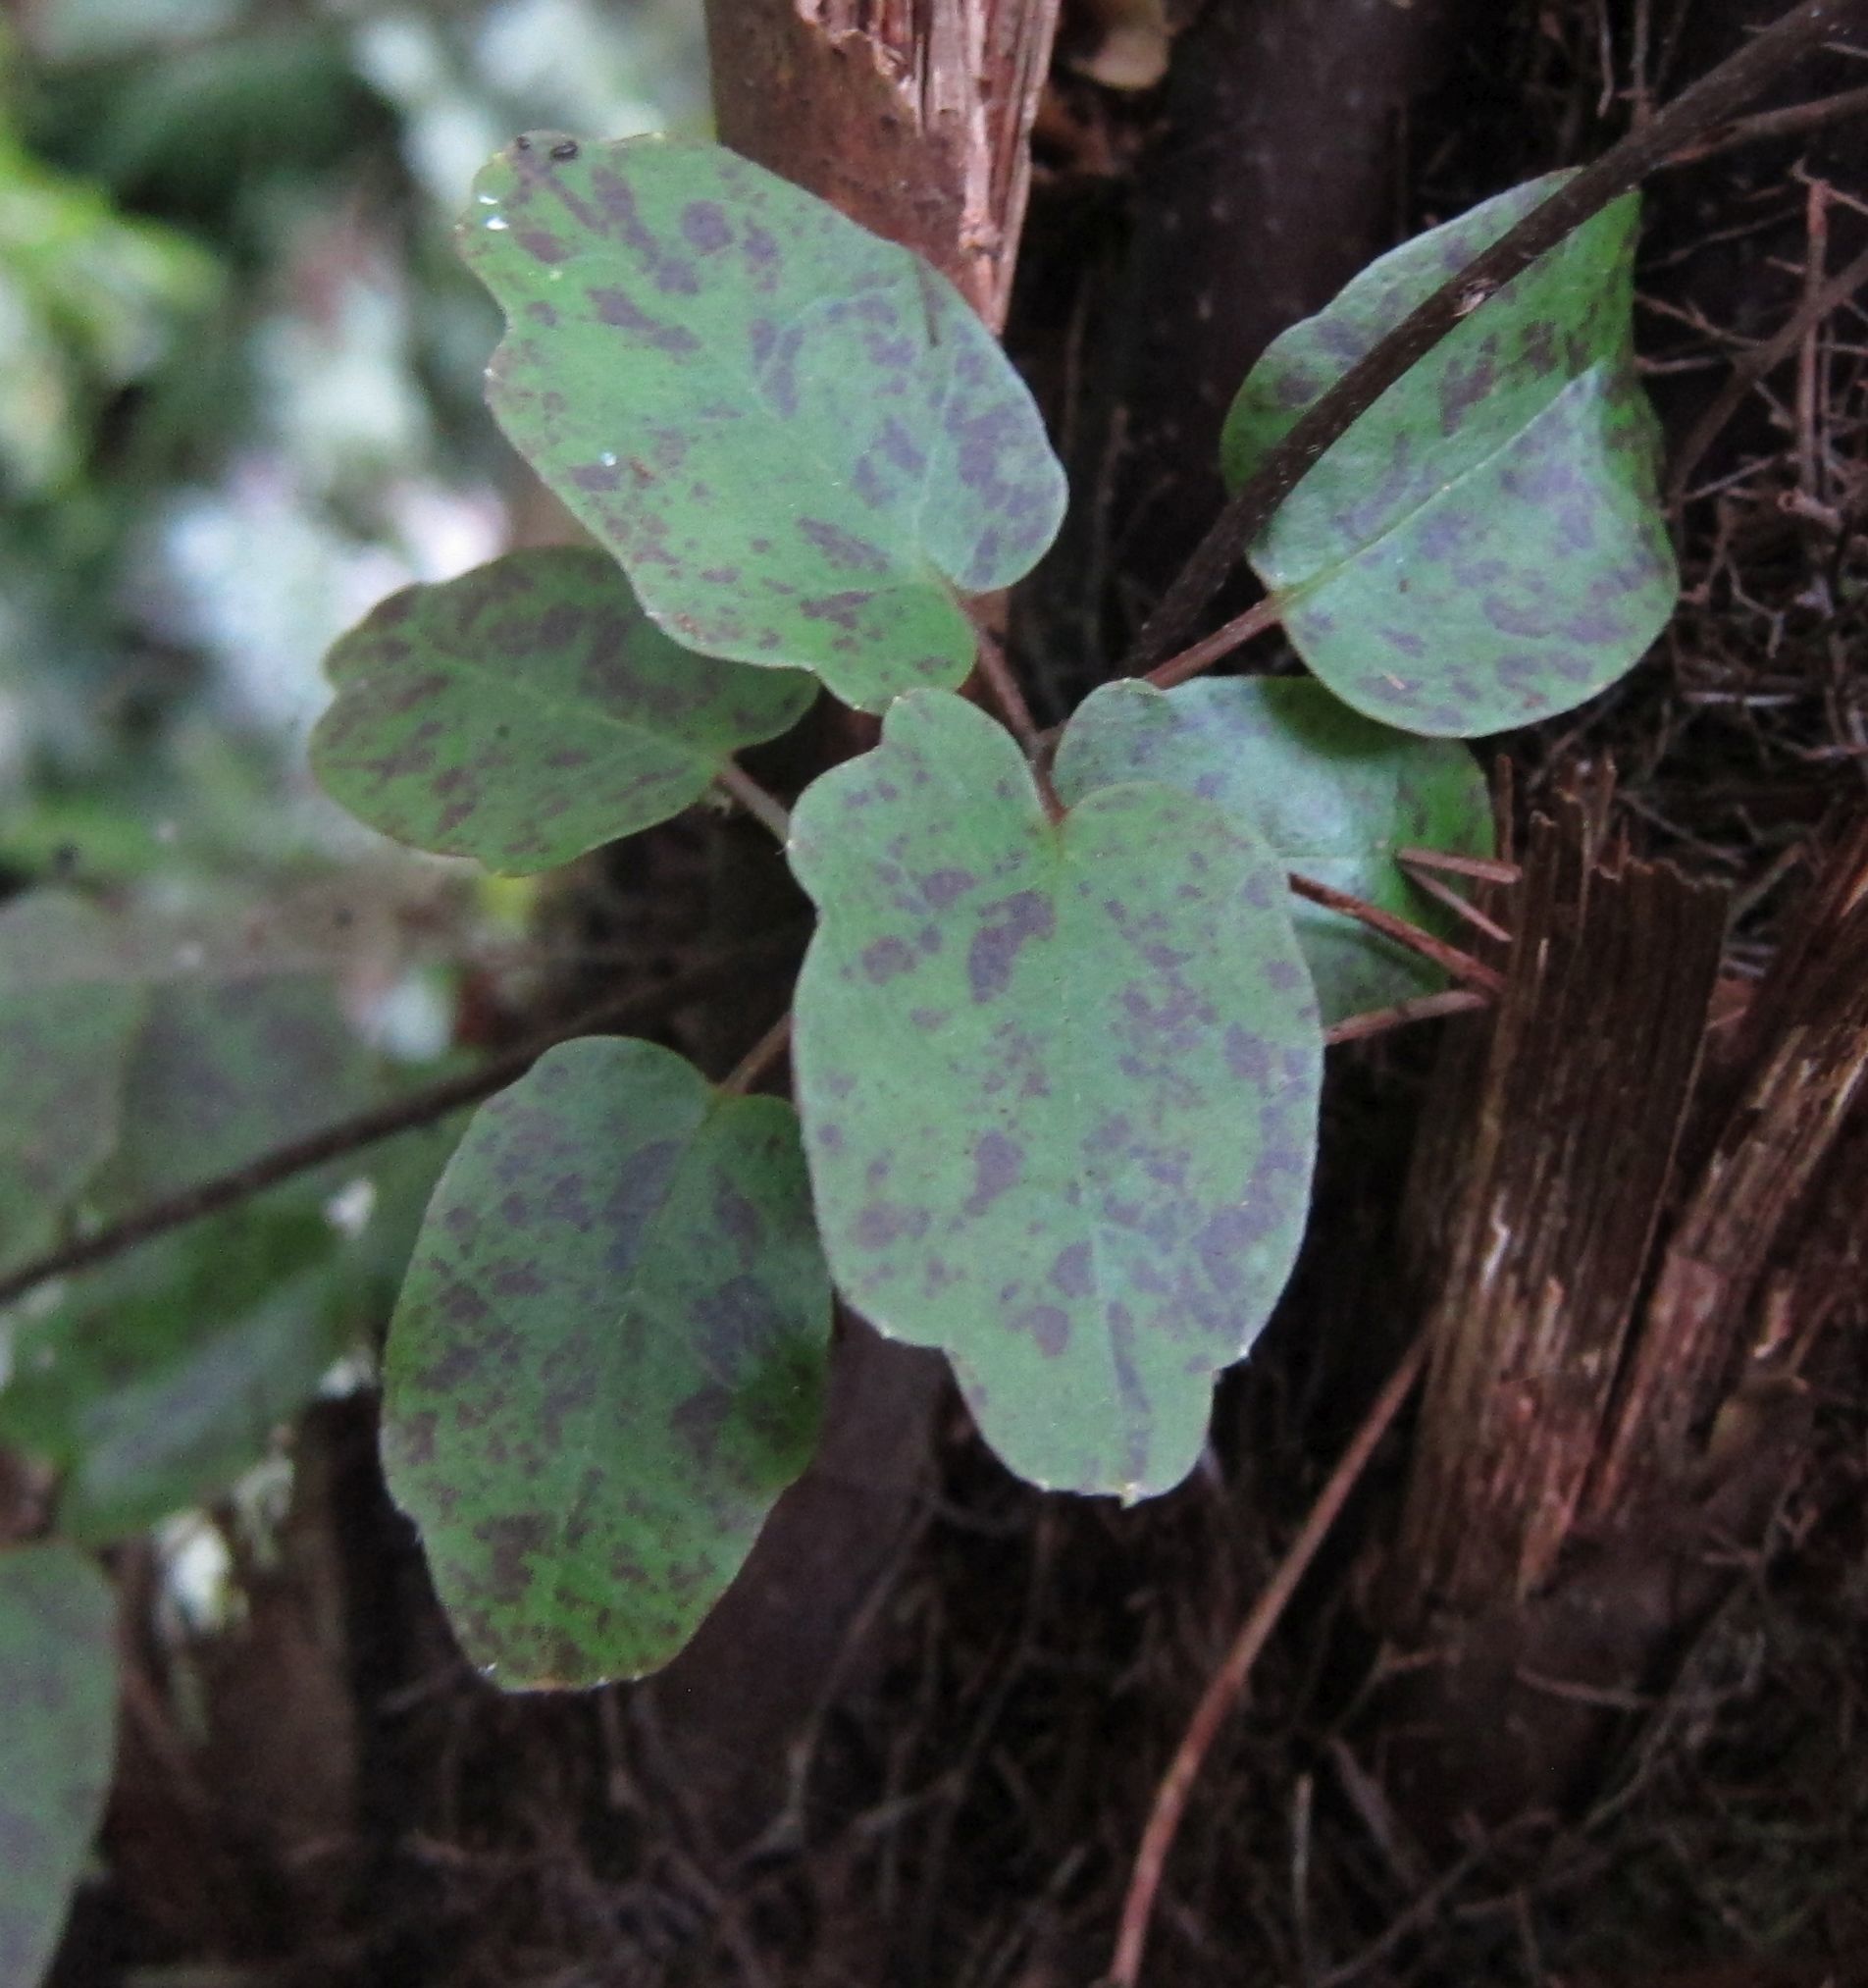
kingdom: Plantae
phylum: Tracheophyta
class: Magnoliopsida
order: Ranunculales
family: Ranunculaceae
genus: Clematis
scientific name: Clematis paniculata
